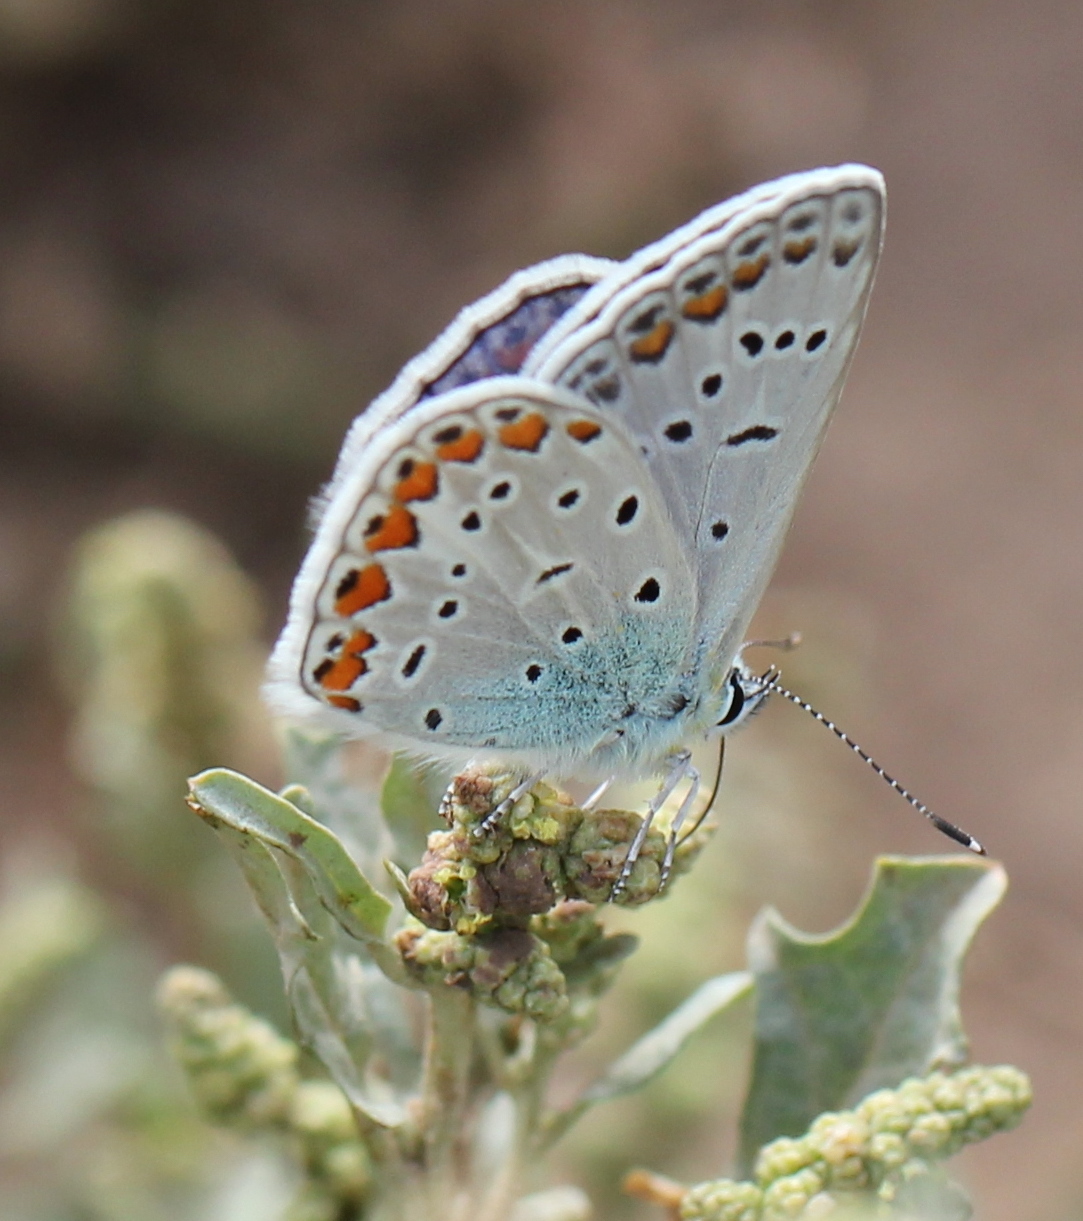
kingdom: Animalia
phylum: Arthropoda
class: Insecta
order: Lepidoptera
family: Lycaenidae
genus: Polyommatus
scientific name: Polyommatus icarus
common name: Common blue
